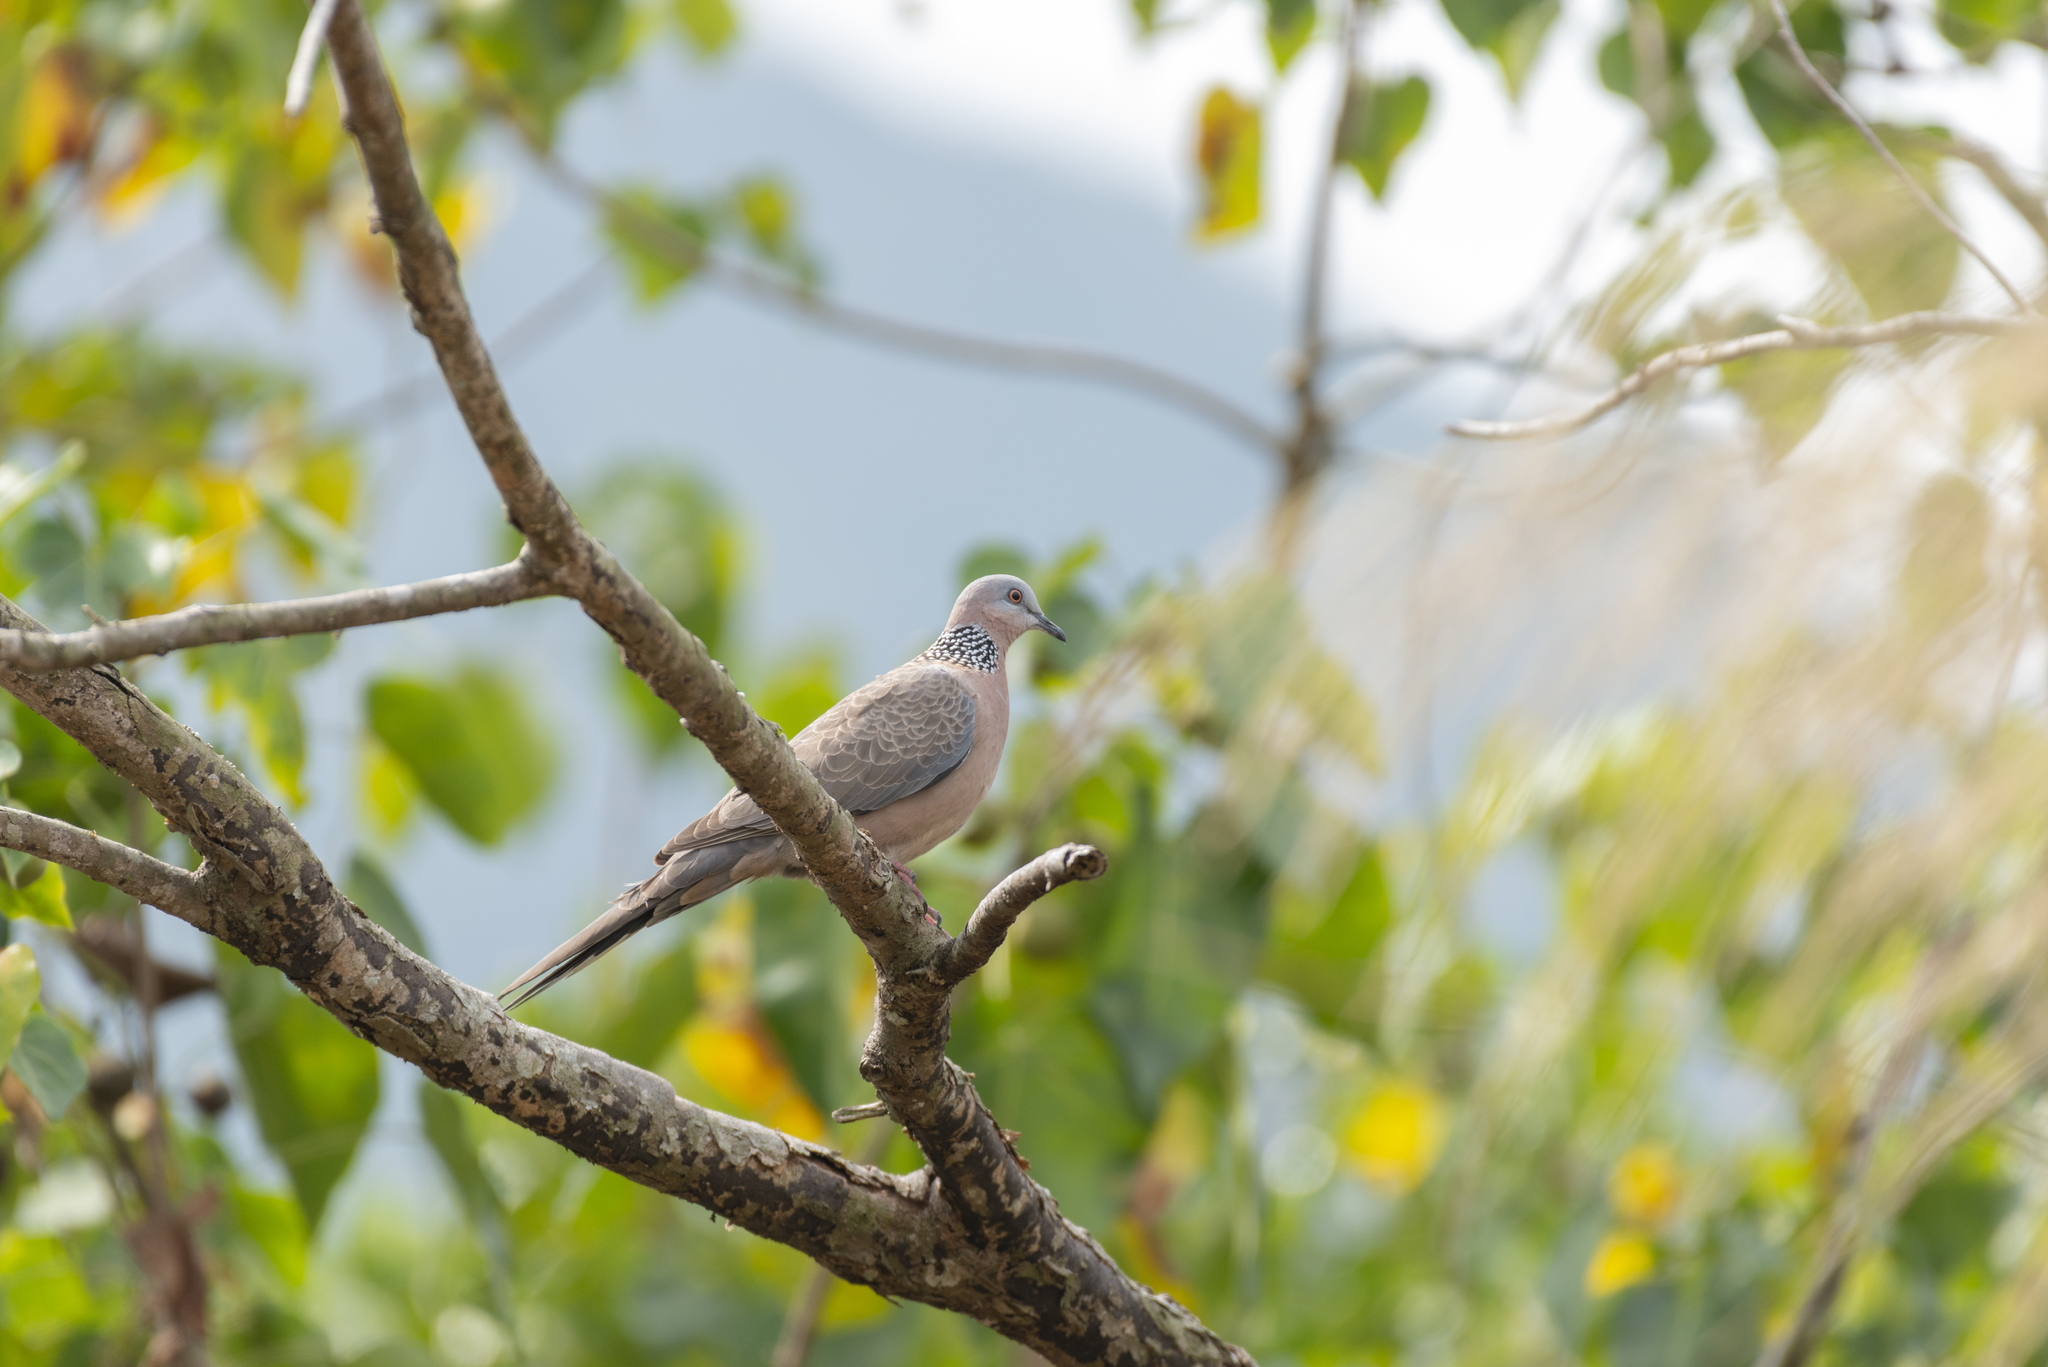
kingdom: Animalia
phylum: Chordata
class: Aves
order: Columbiformes
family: Columbidae
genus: Spilopelia
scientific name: Spilopelia chinensis
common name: Spotted dove
